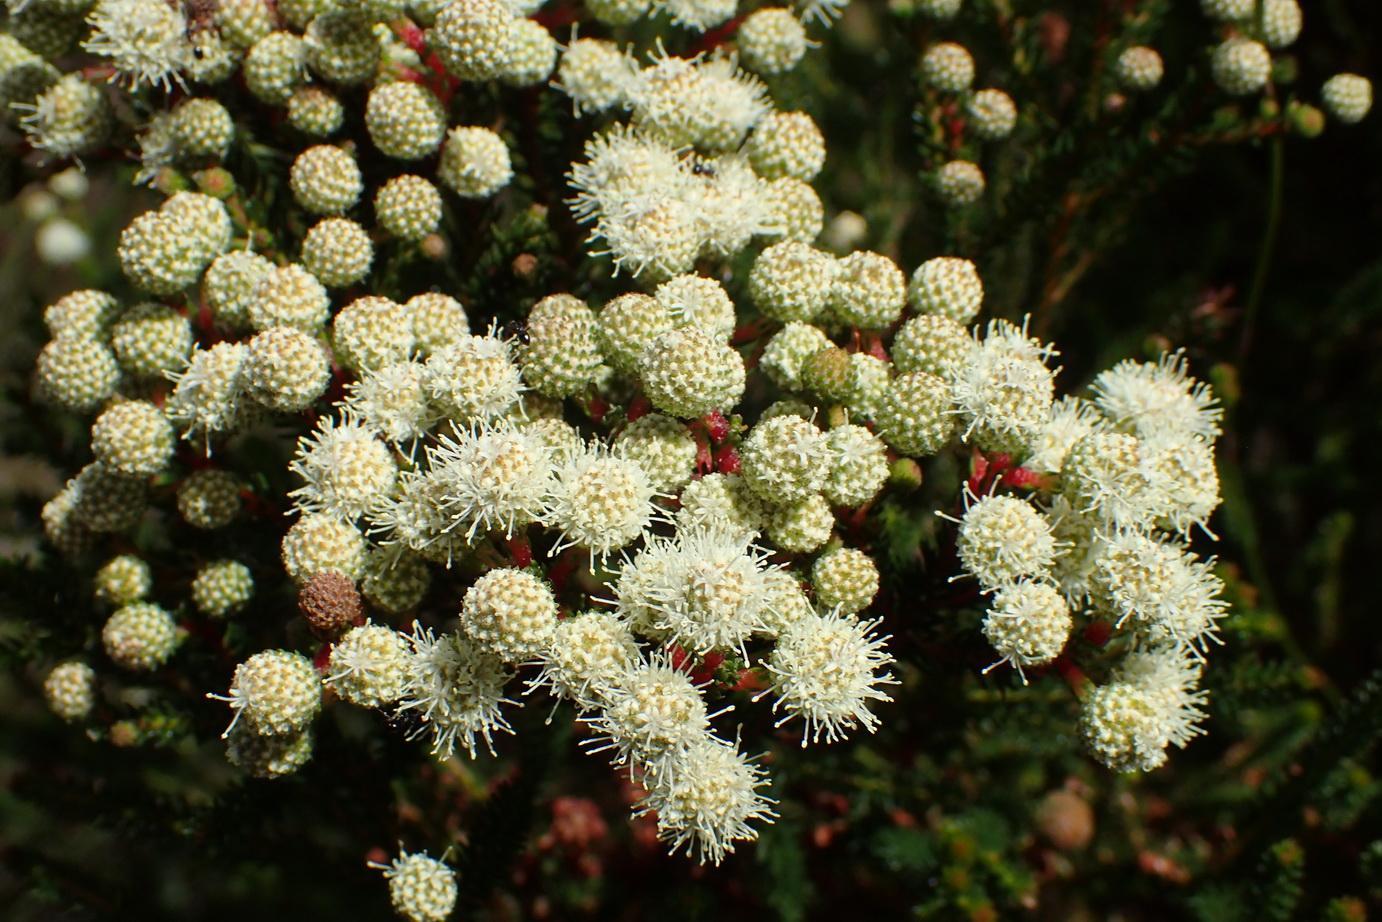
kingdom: Plantae
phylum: Tracheophyta
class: Magnoliopsida
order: Bruniales
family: Bruniaceae
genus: Berzelia
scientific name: Berzelia intermedia
